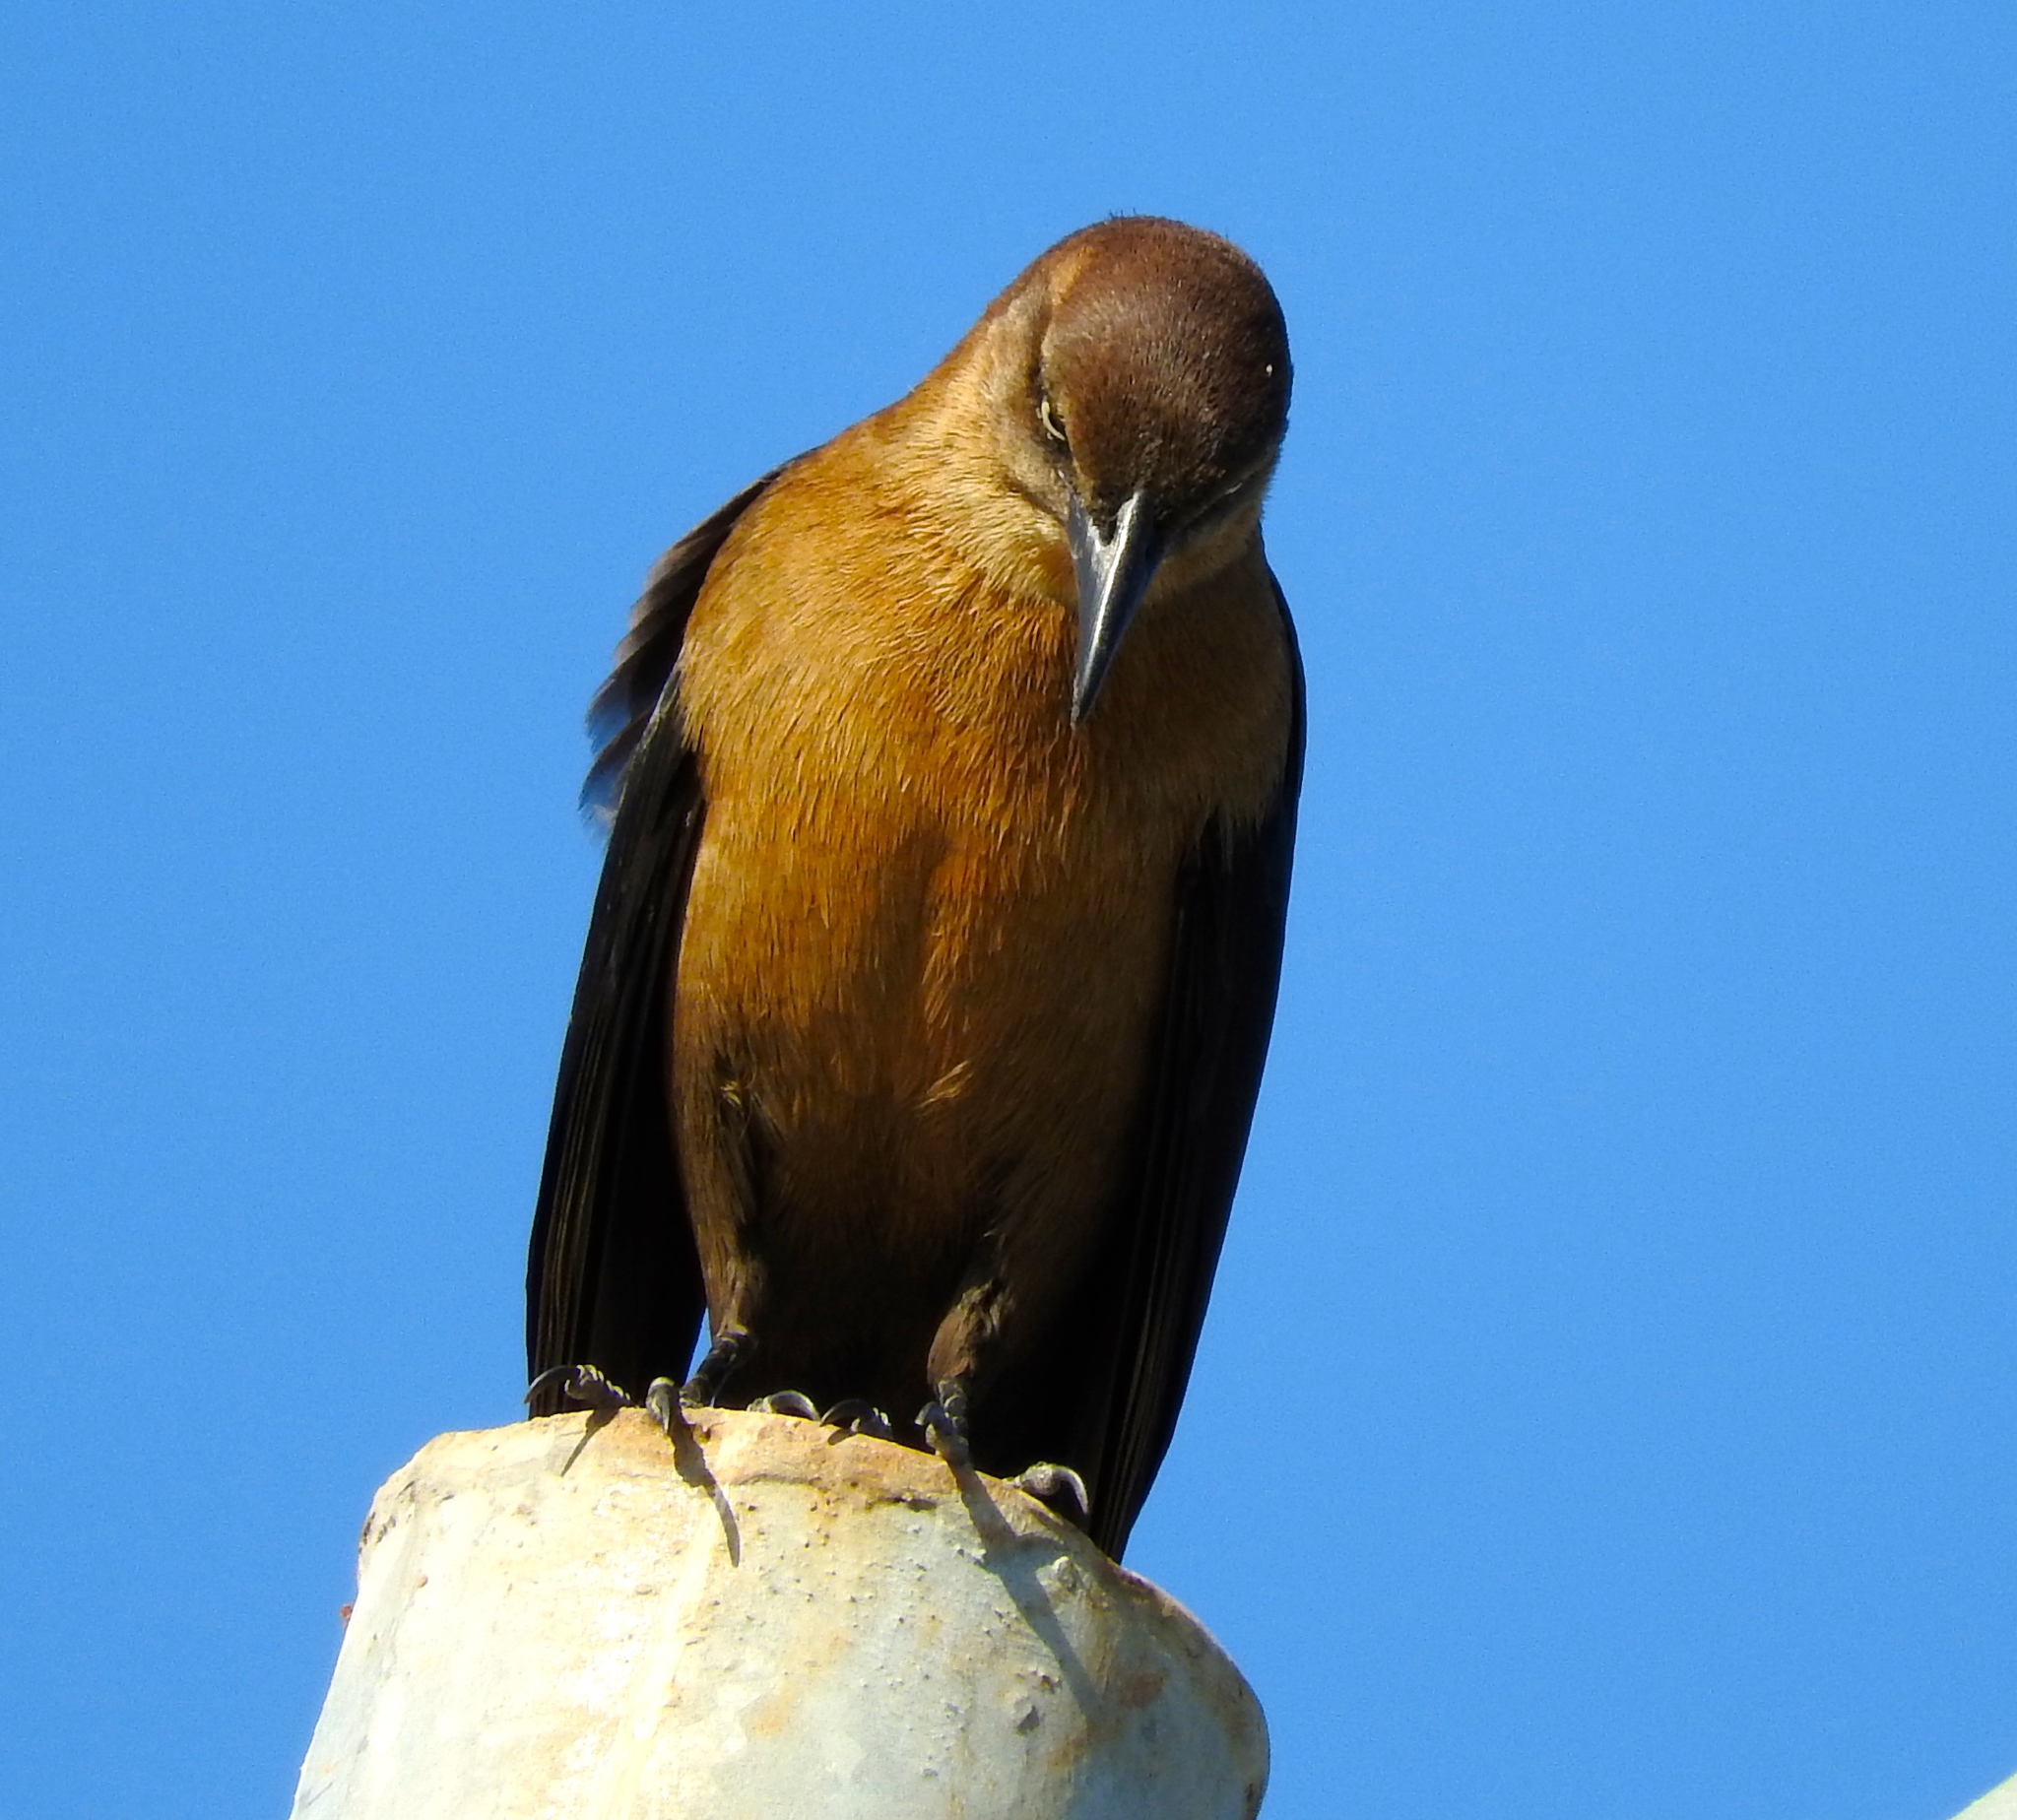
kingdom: Animalia
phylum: Chordata
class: Aves
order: Passeriformes
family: Icteridae
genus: Quiscalus
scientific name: Quiscalus mexicanus
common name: Great-tailed grackle
